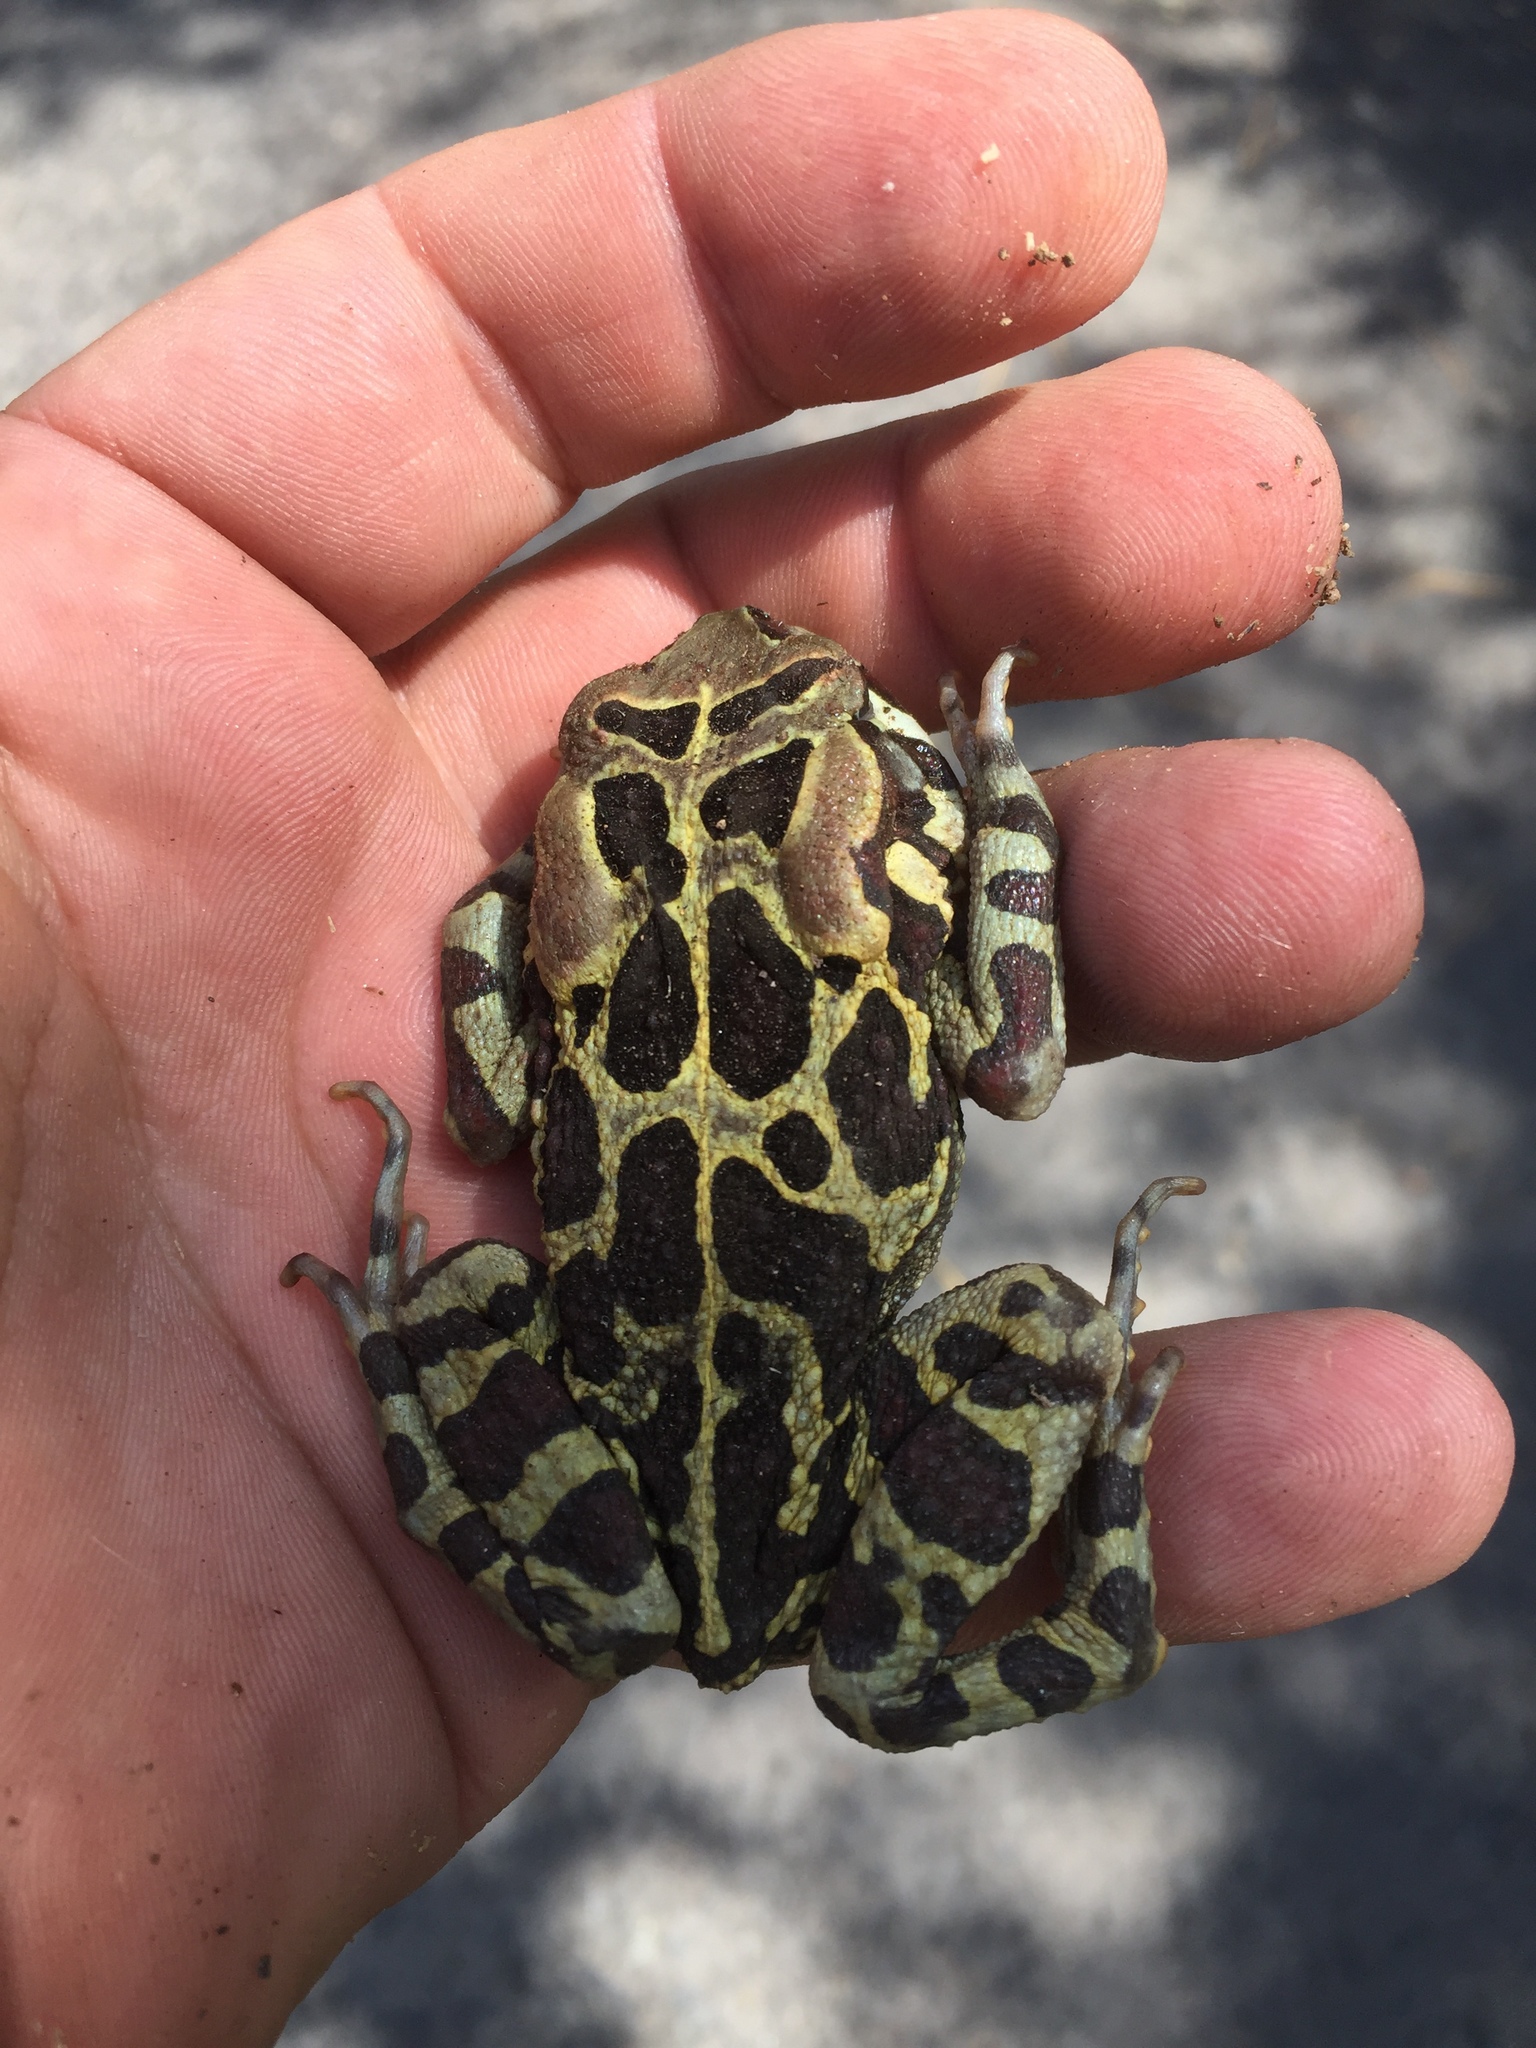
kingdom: Animalia
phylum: Chordata
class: Amphibia
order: Anura
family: Bufonidae
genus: Sclerophrys
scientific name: Sclerophrys pantherina
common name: Panther toad
